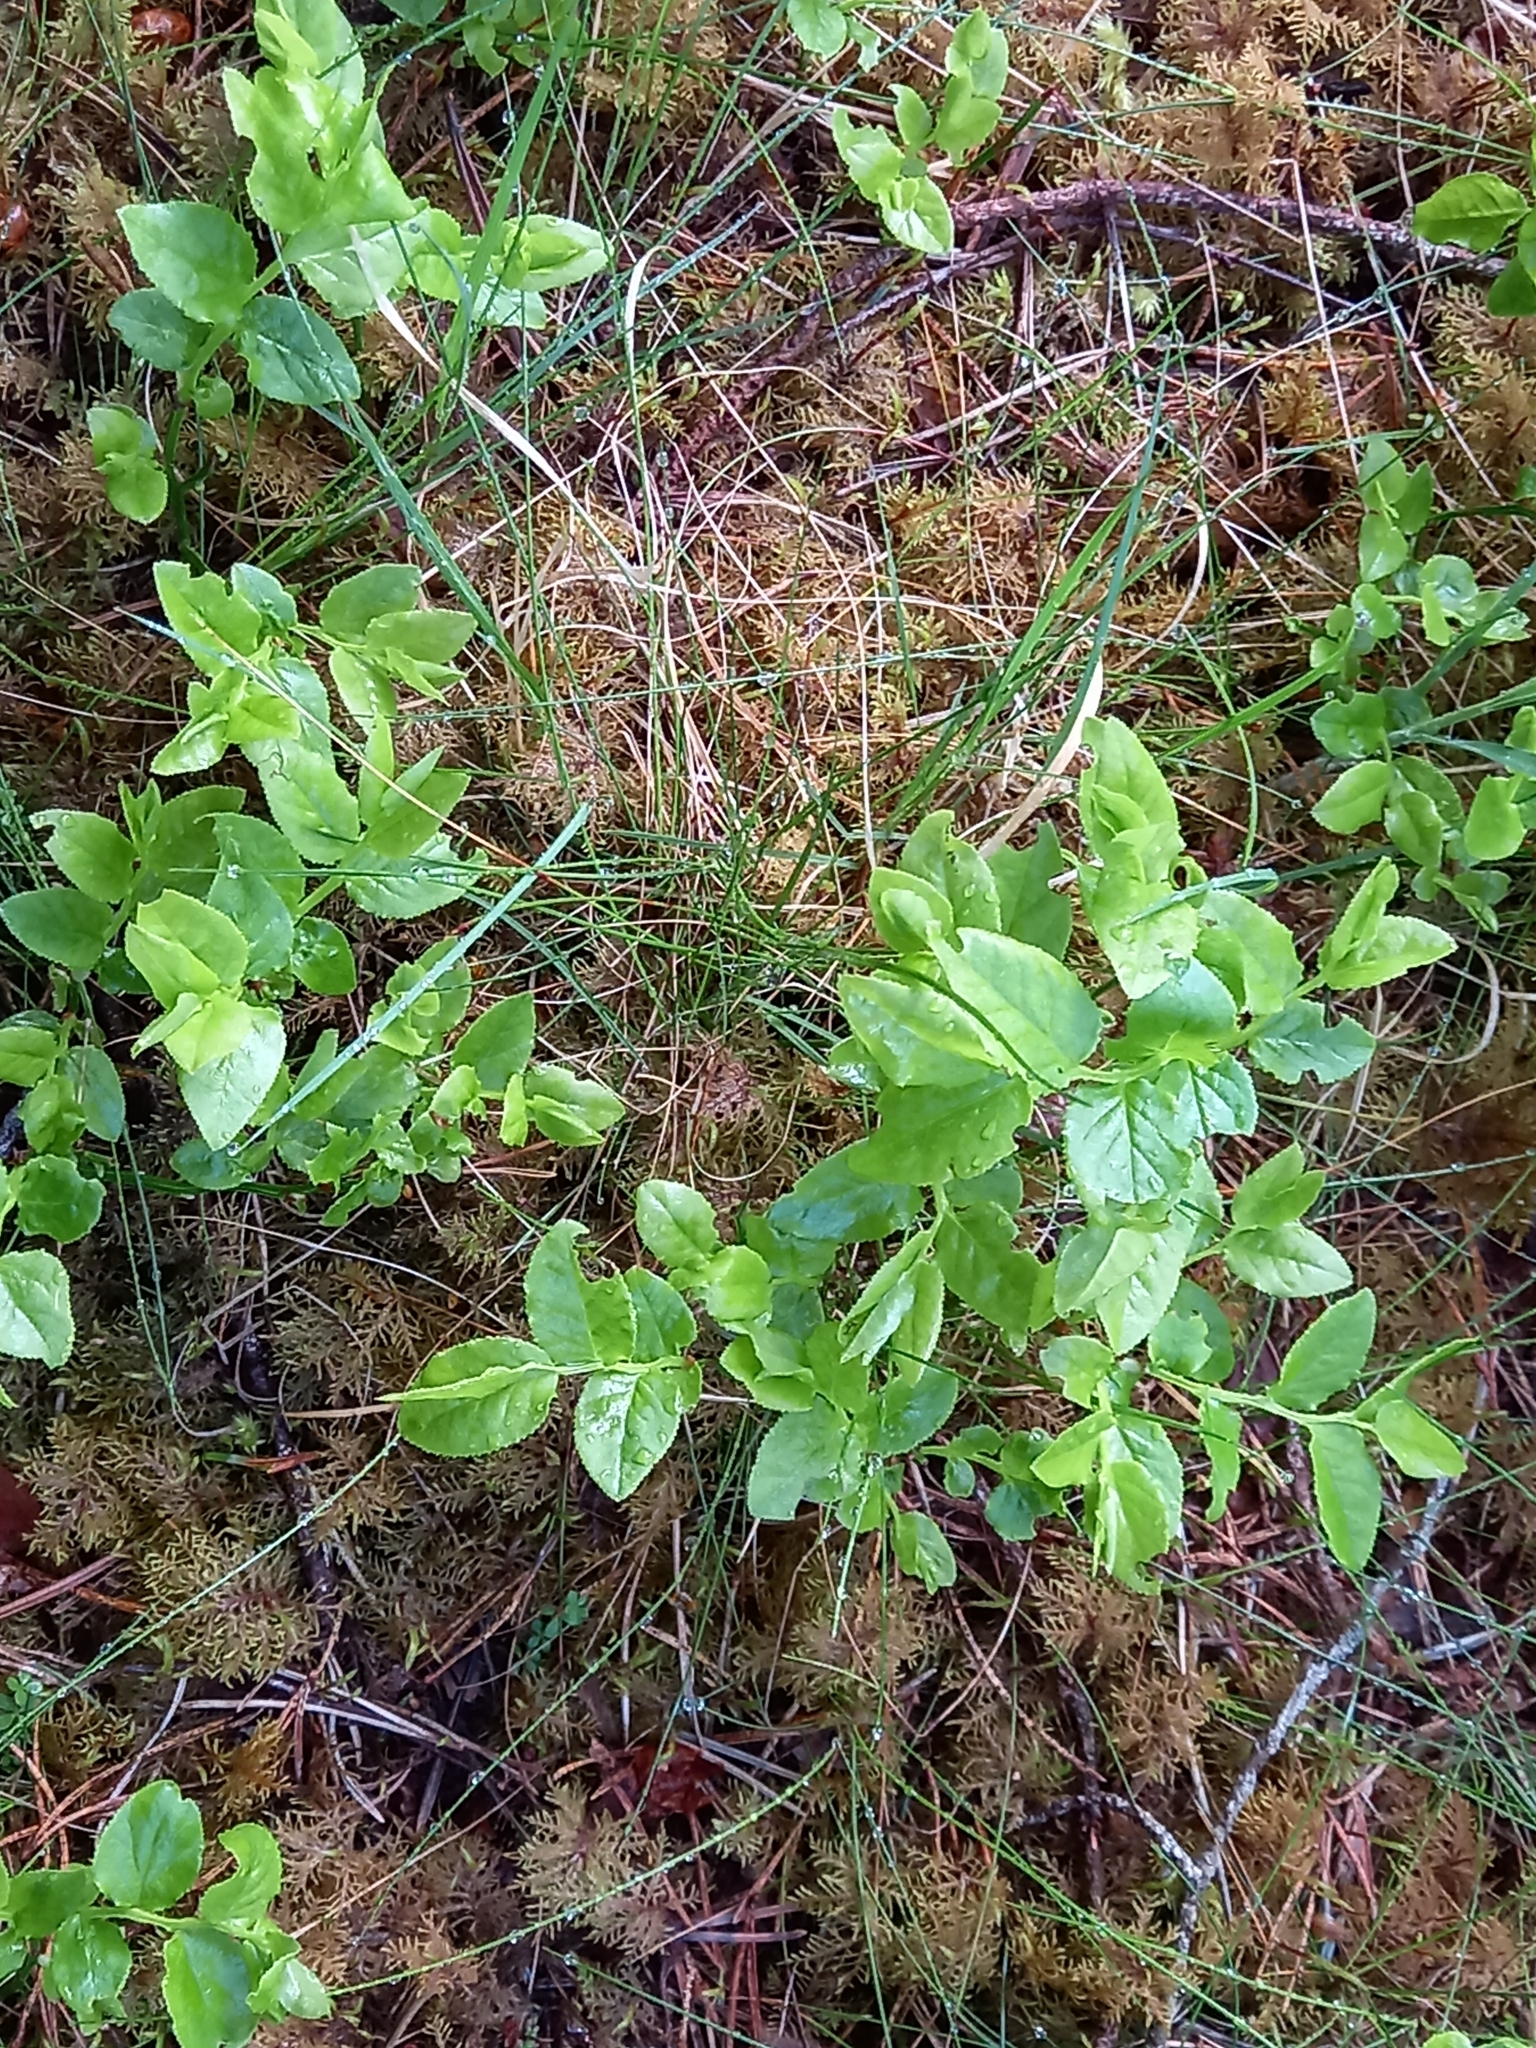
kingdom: Plantae
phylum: Tracheophyta
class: Magnoliopsida
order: Ericales
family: Ericaceae
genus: Vaccinium
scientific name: Vaccinium myrtillus
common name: Bilberry
